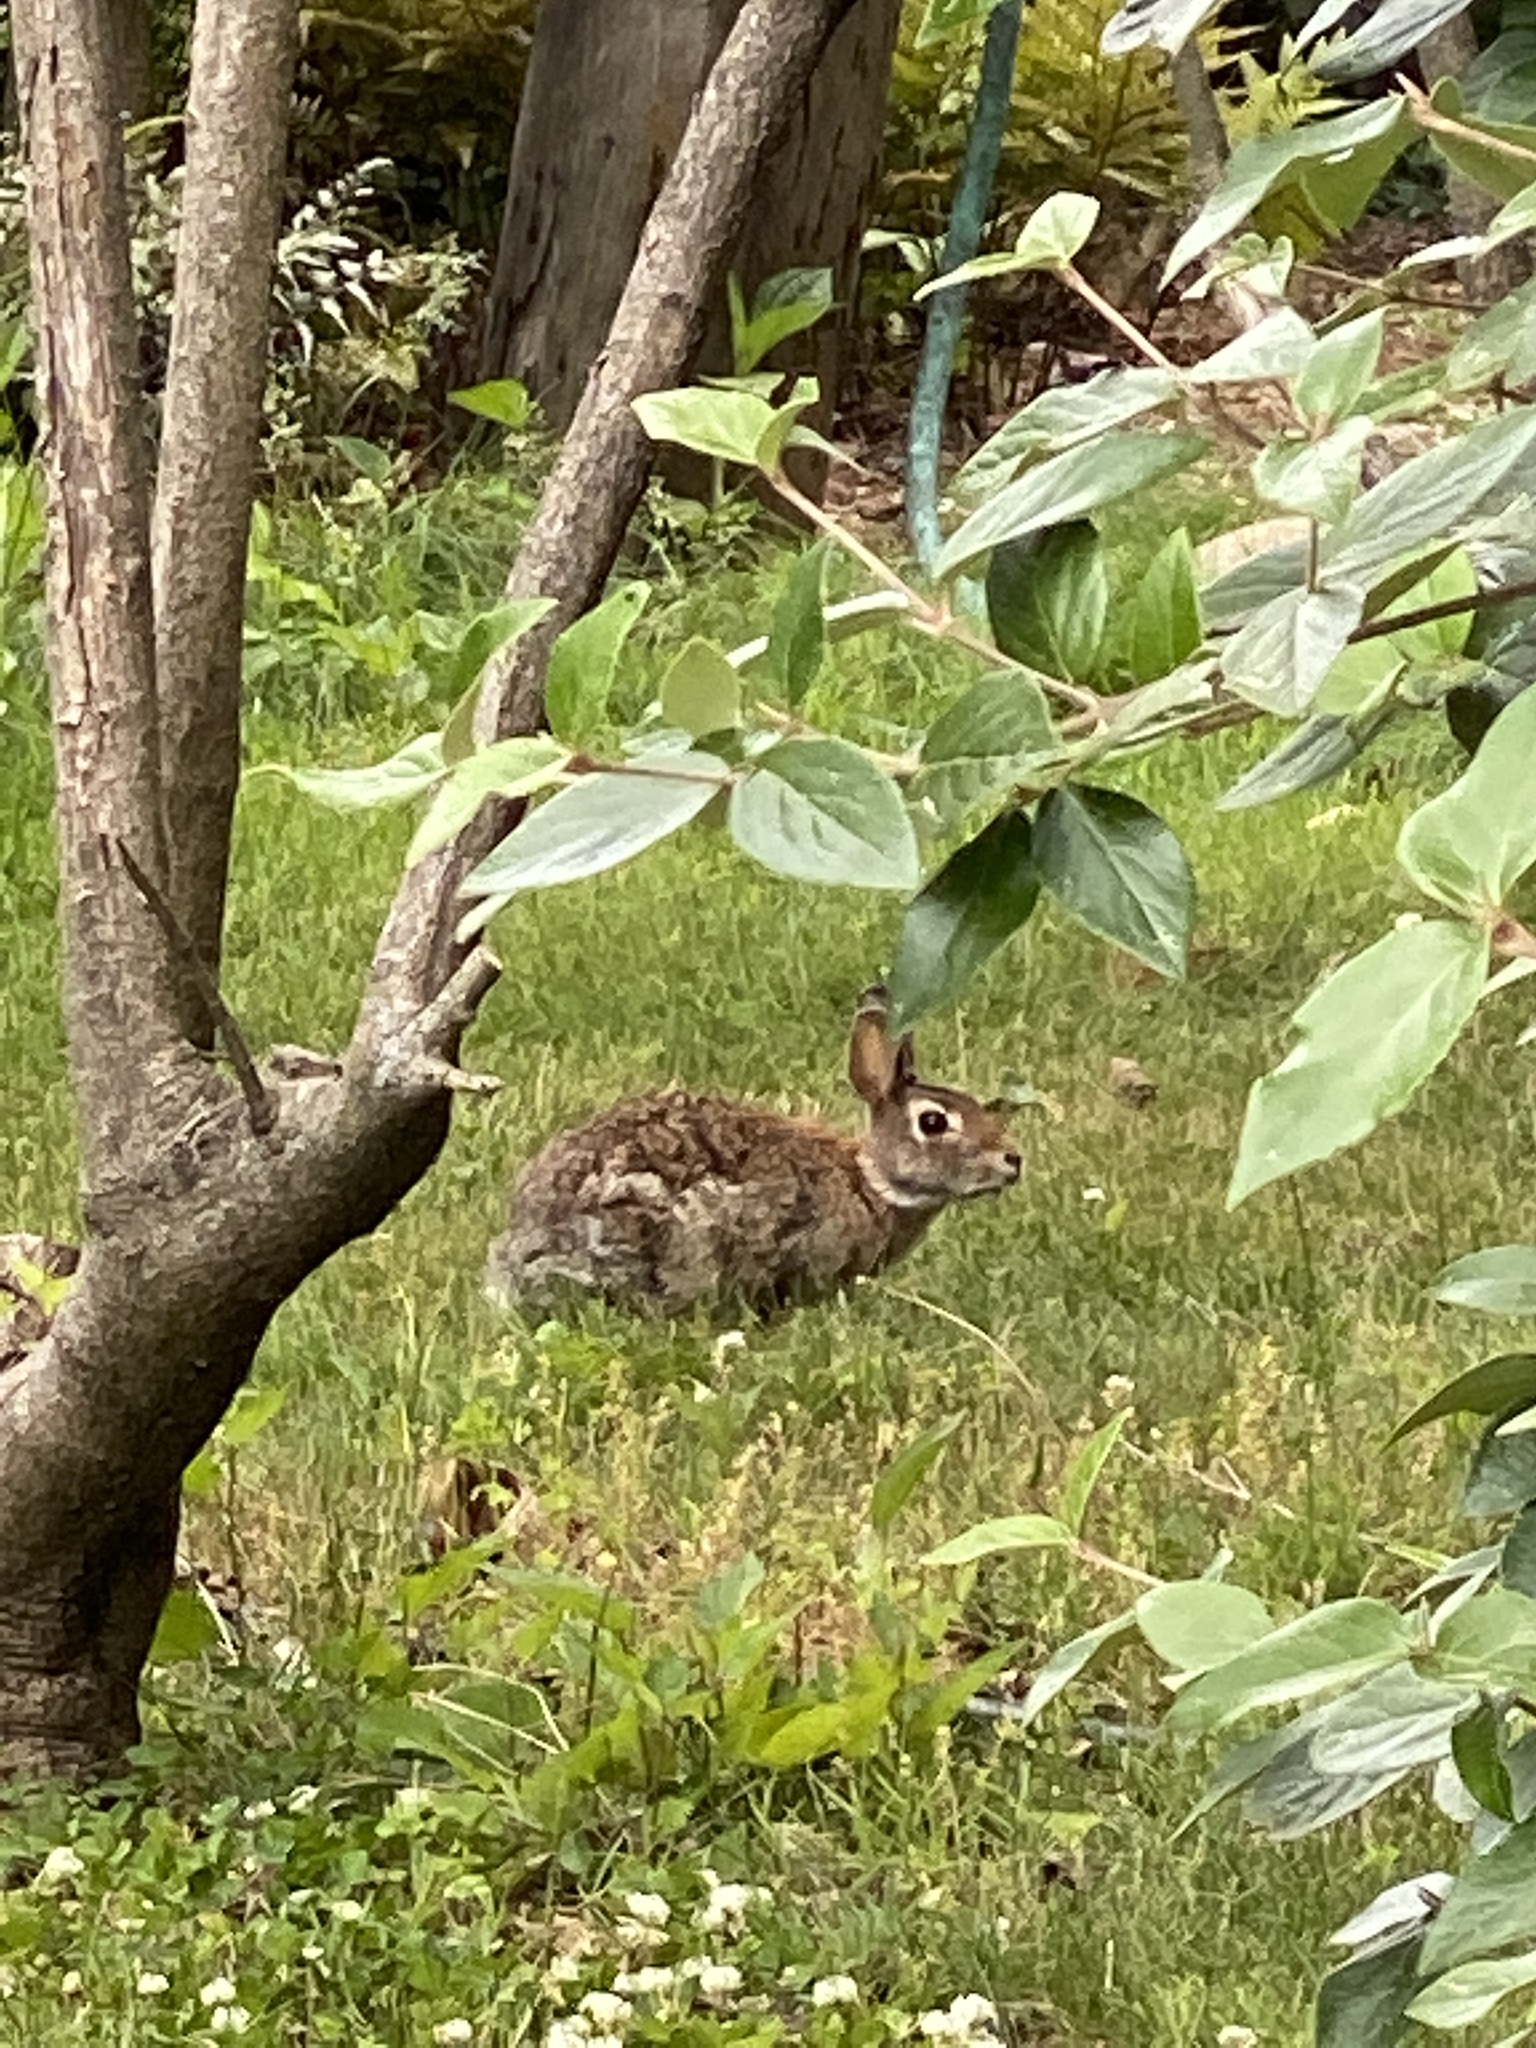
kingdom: Animalia
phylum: Chordata
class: Mammalia
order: Lagomorpha
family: Leporidae
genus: Sylvilagus
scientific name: Sylvilagus floridanus
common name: Eastern cottontail
